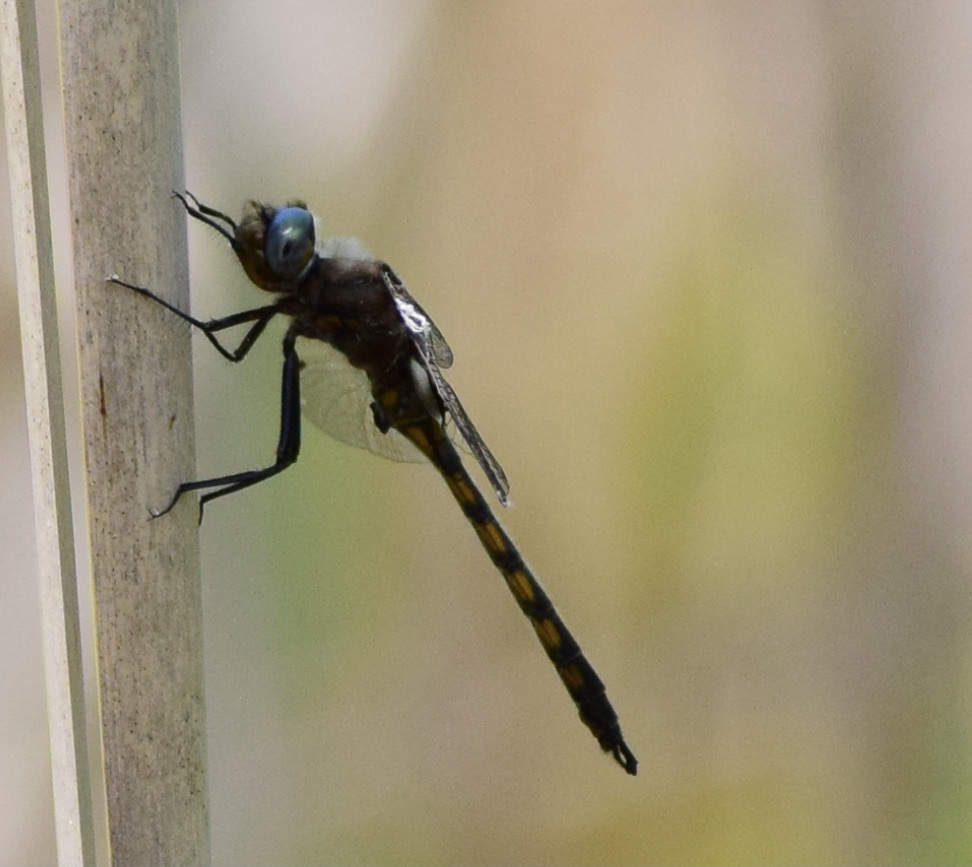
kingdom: Animalia
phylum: Arthropoda
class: Insecta
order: Odonata
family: Corduliidae
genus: Epitheca
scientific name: Epitheca canis
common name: Beaverpond baskettail
